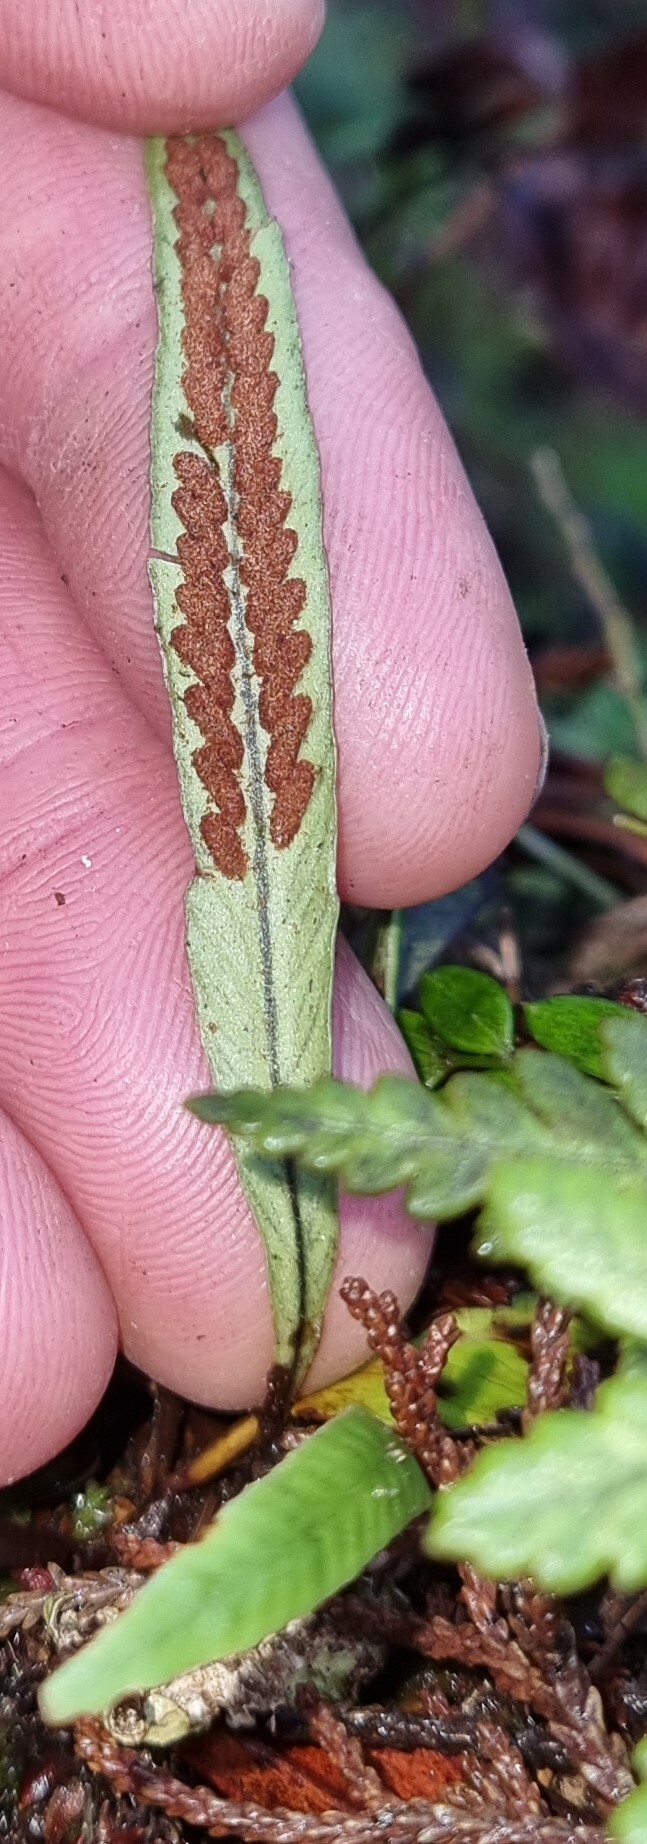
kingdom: Plantae
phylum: Tracheophyta
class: Polypodiopsida
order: Polypodiales
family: Polypodiaceae
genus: Notogrammitis
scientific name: Notogrammitis billardierei
